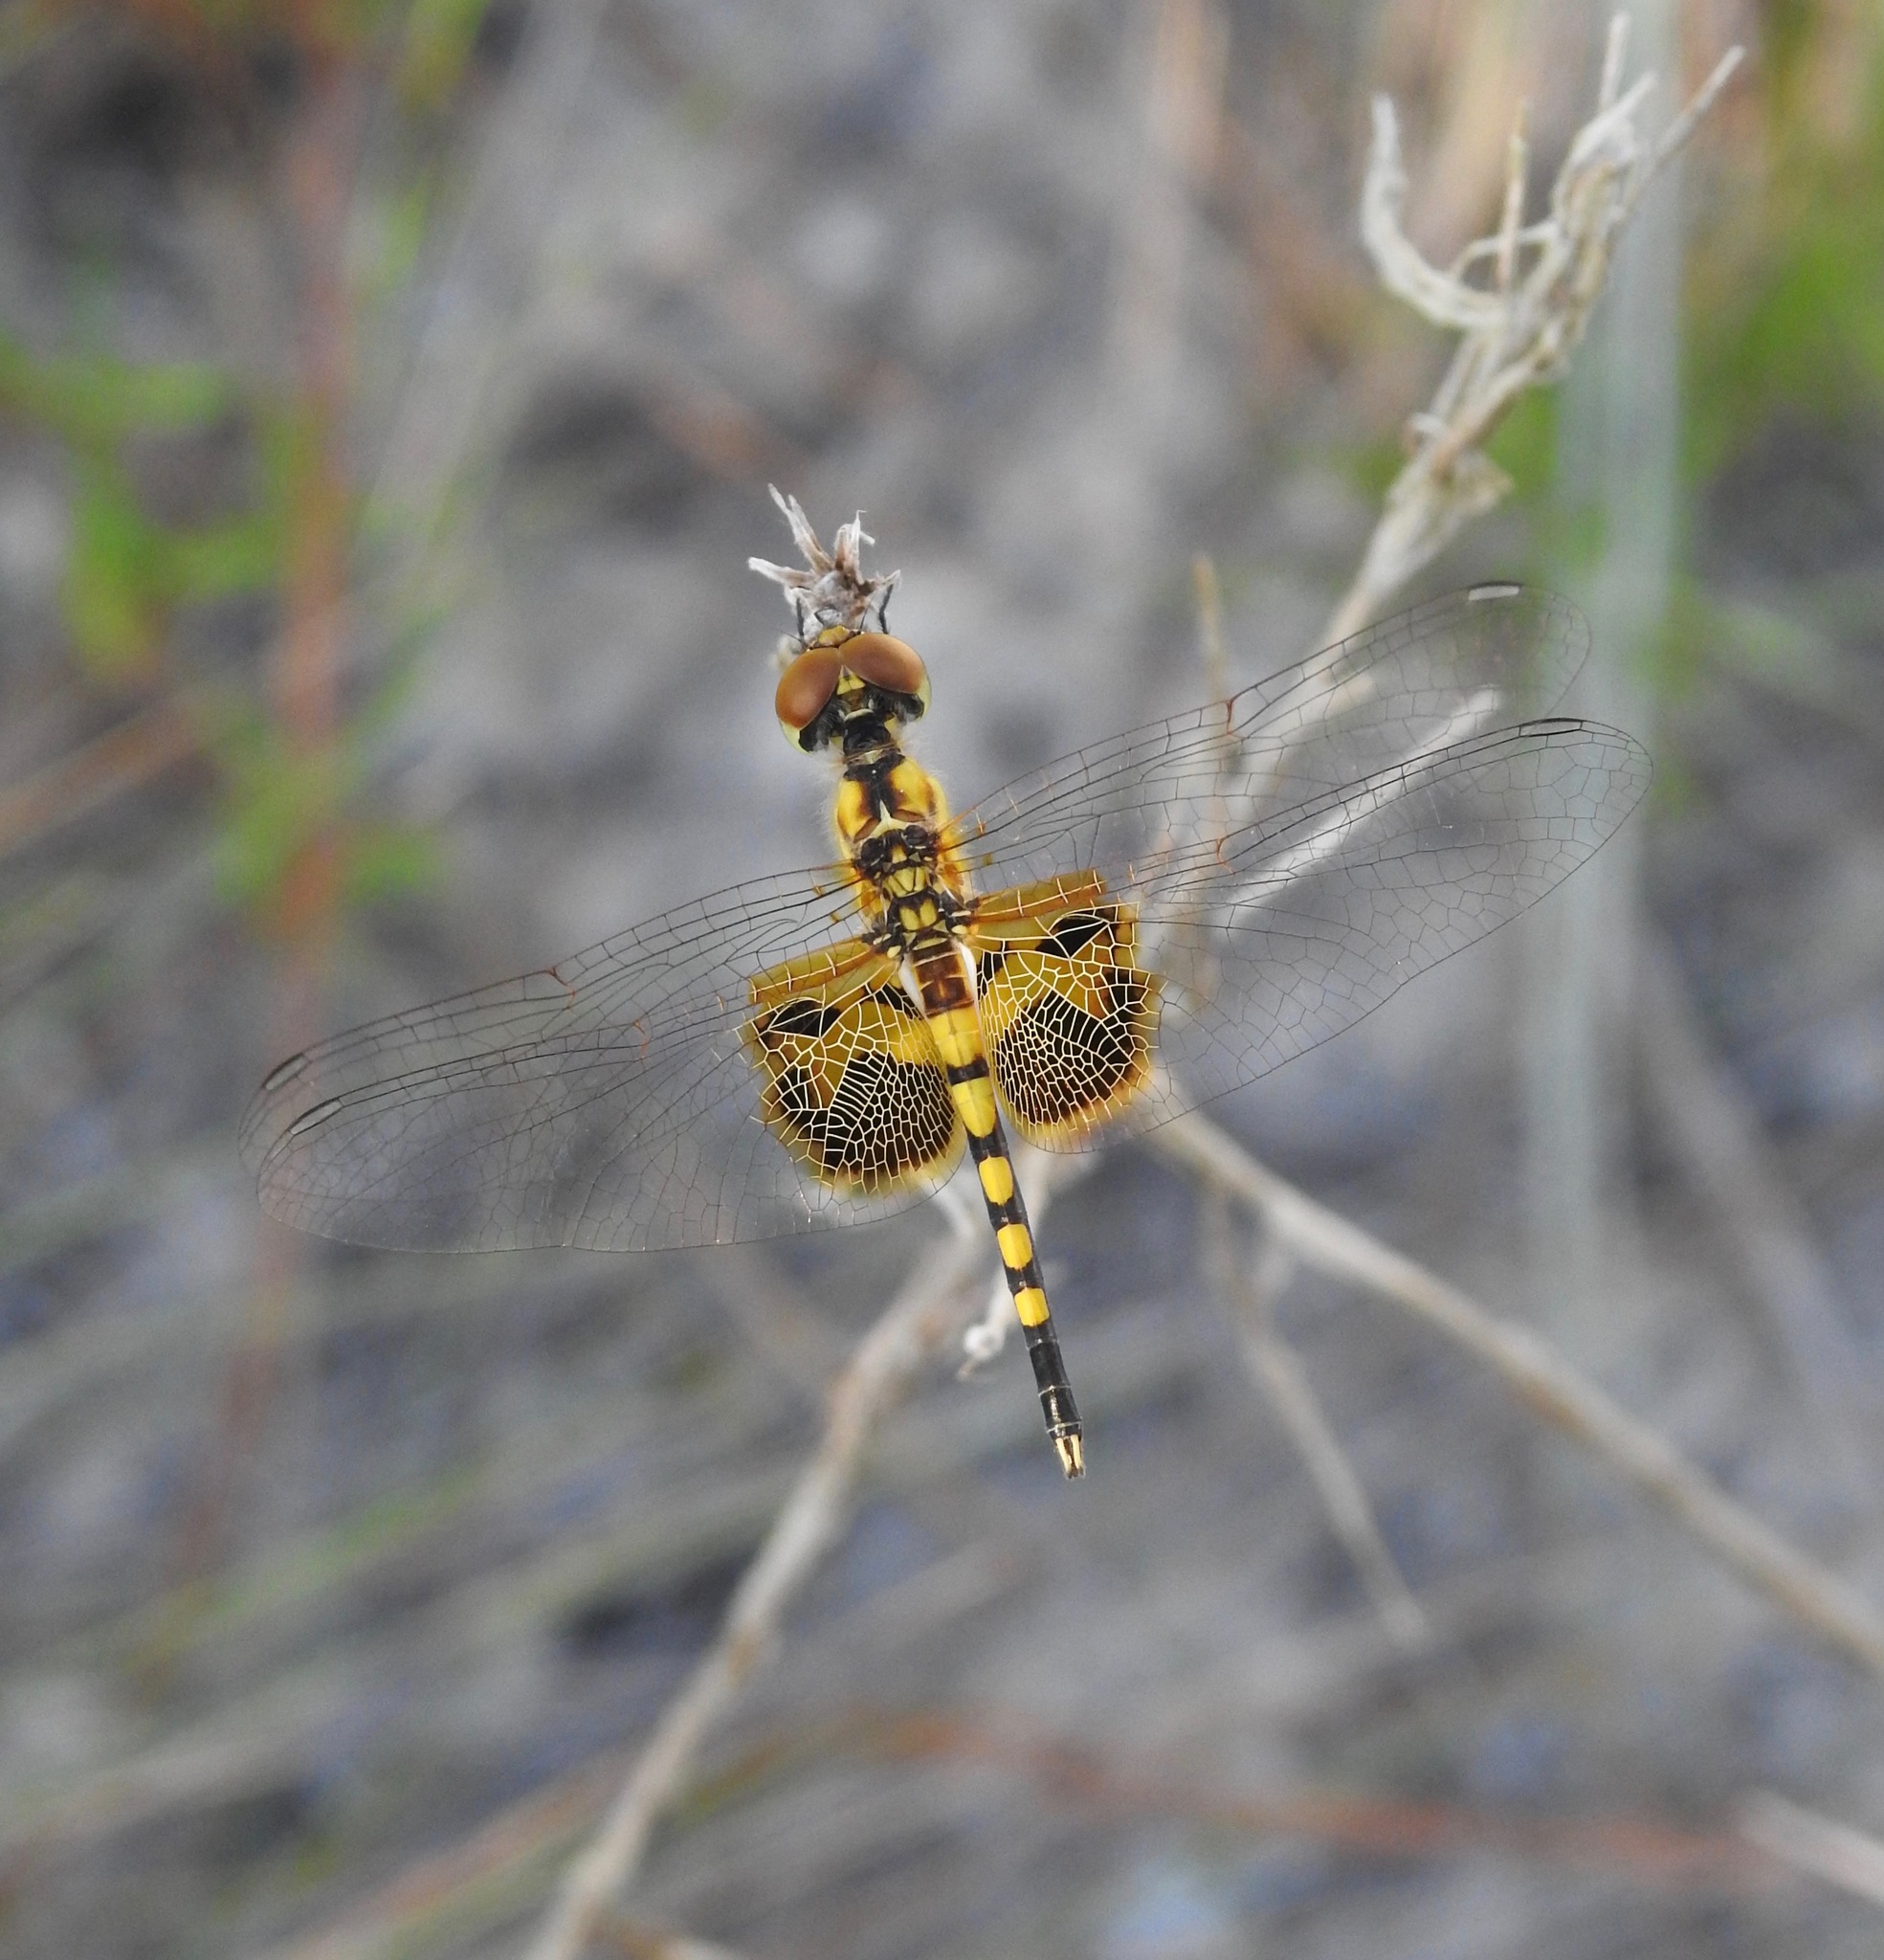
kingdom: Animalia
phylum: Arthropoda
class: Insecta
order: Odonata
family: Libellulidae
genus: Celithemis
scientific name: Celithemis amanda
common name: Amanda's pennant
